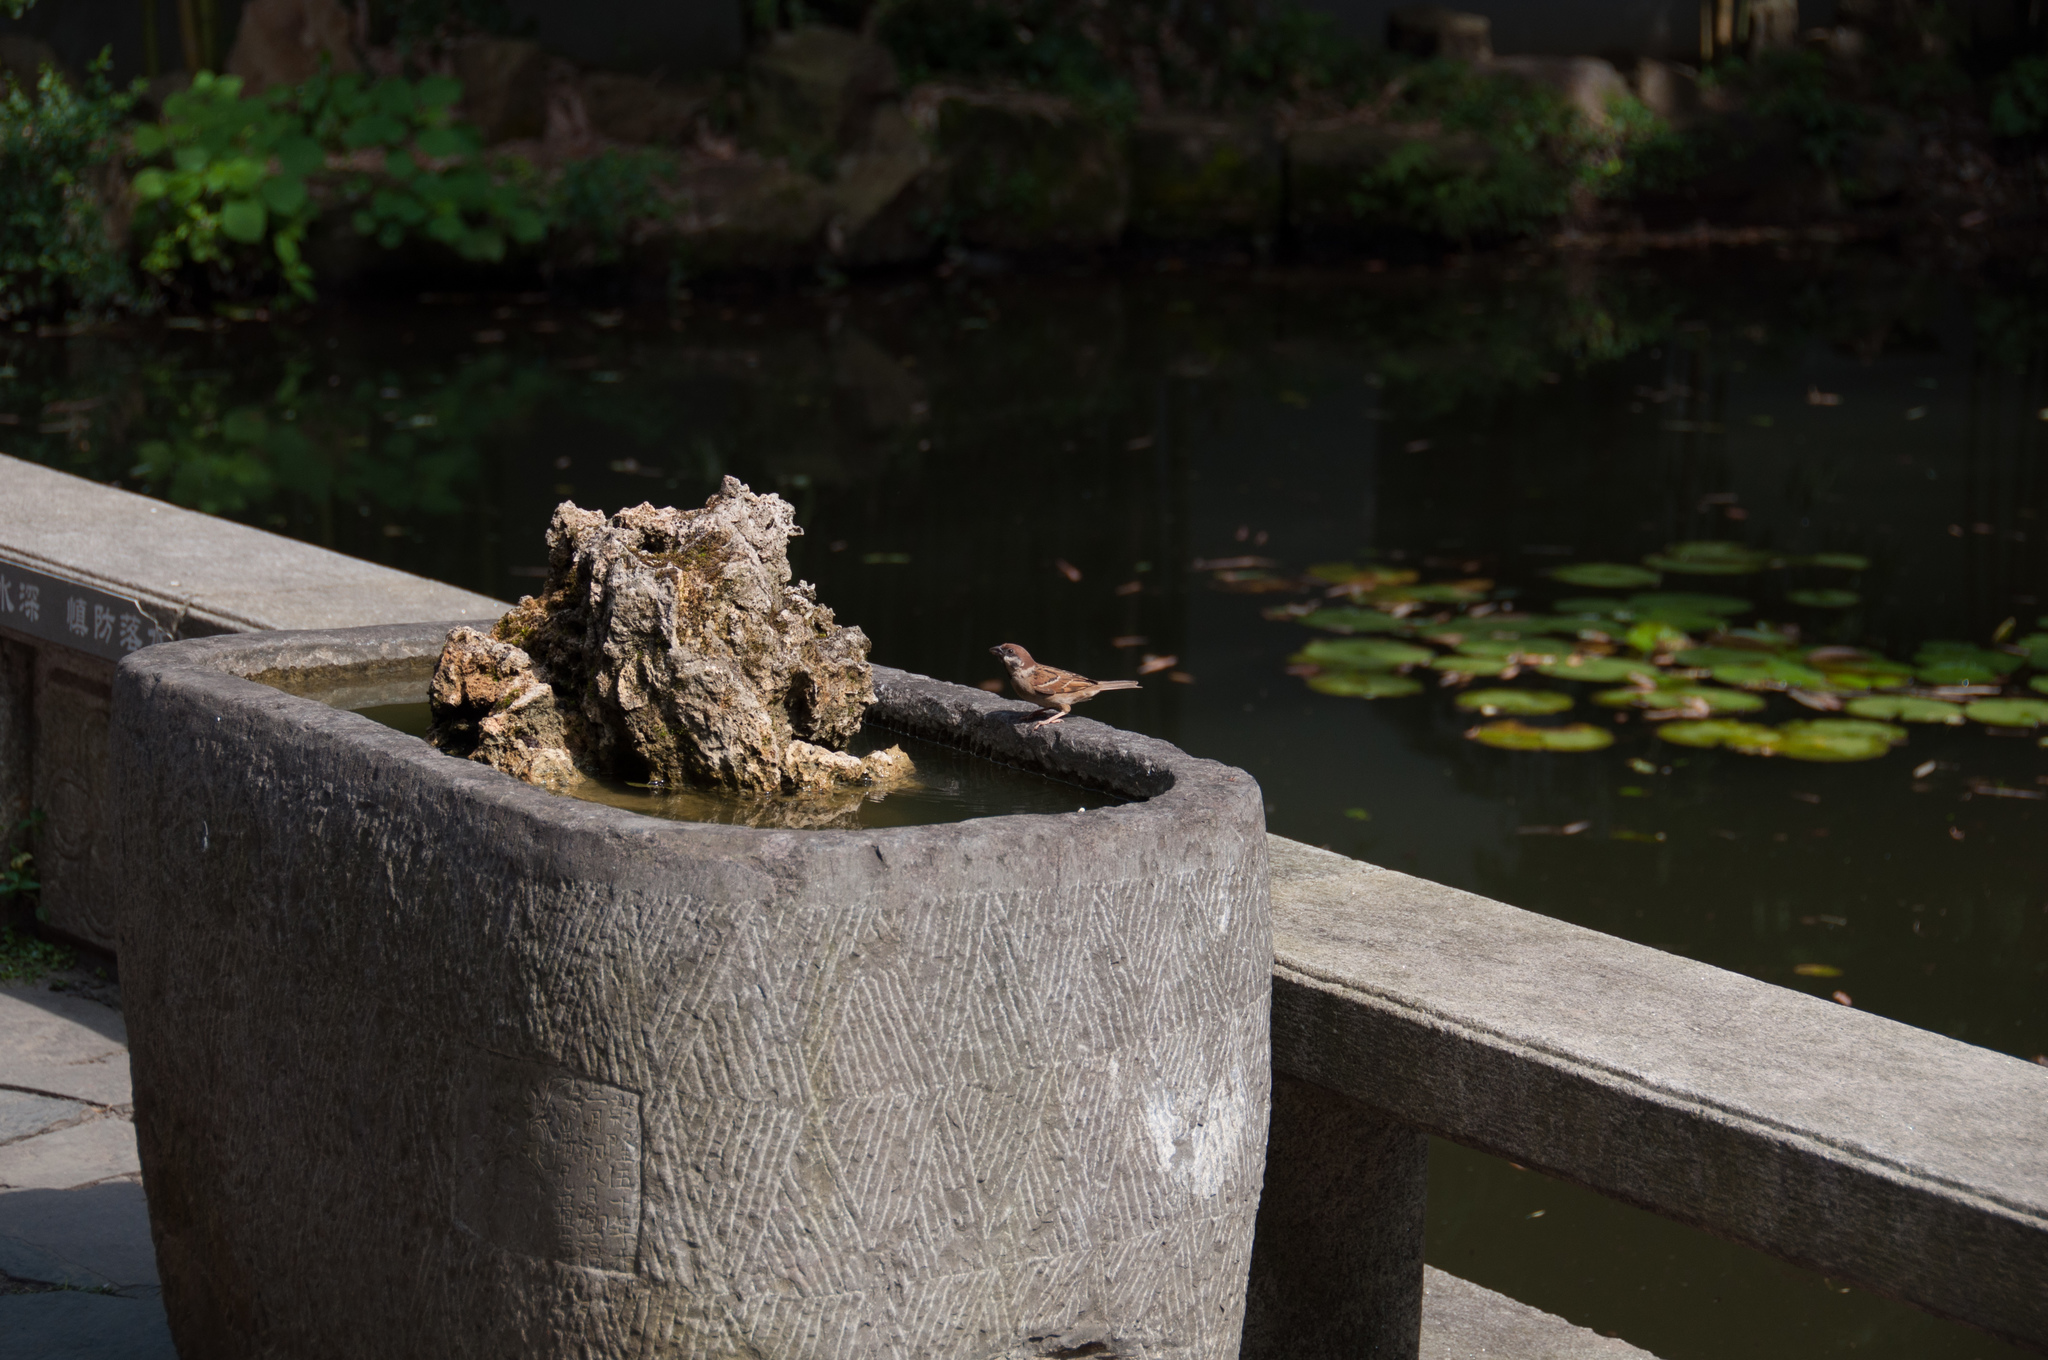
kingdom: Animalia
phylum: Chordata
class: Aves
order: Passeriformes
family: Passeridae
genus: Passer
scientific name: Passer montanus
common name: Eurasian tree sparrow
